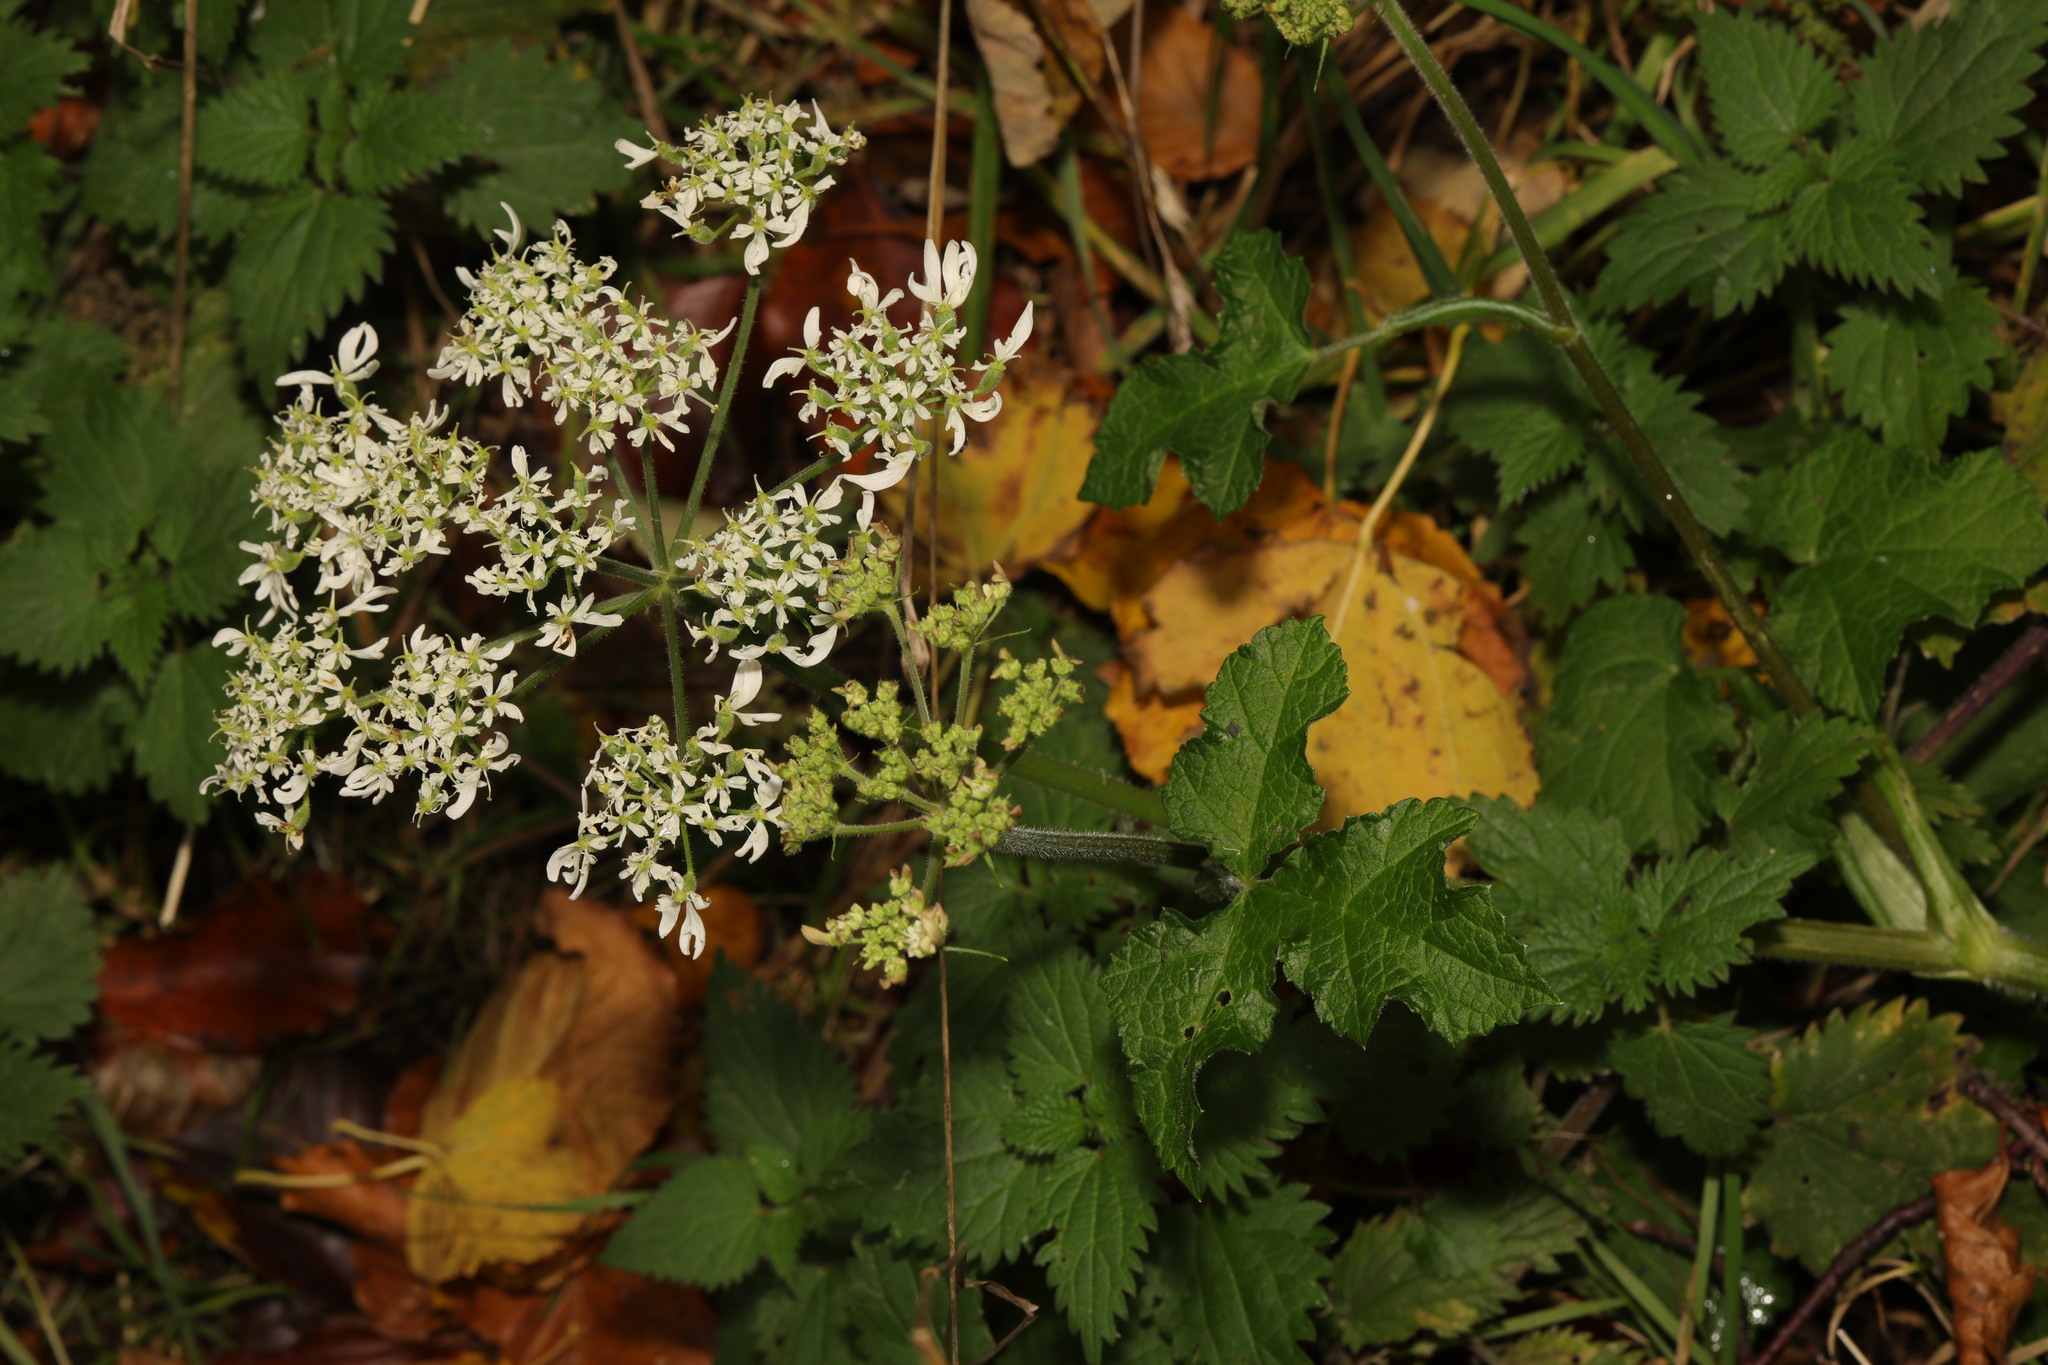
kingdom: Plantae
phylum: Tracheophyta
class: Magnoliopsida
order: Apiales
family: Apiaceae
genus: Heracleum
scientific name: Heracleum sphondylium
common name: Hogweed
